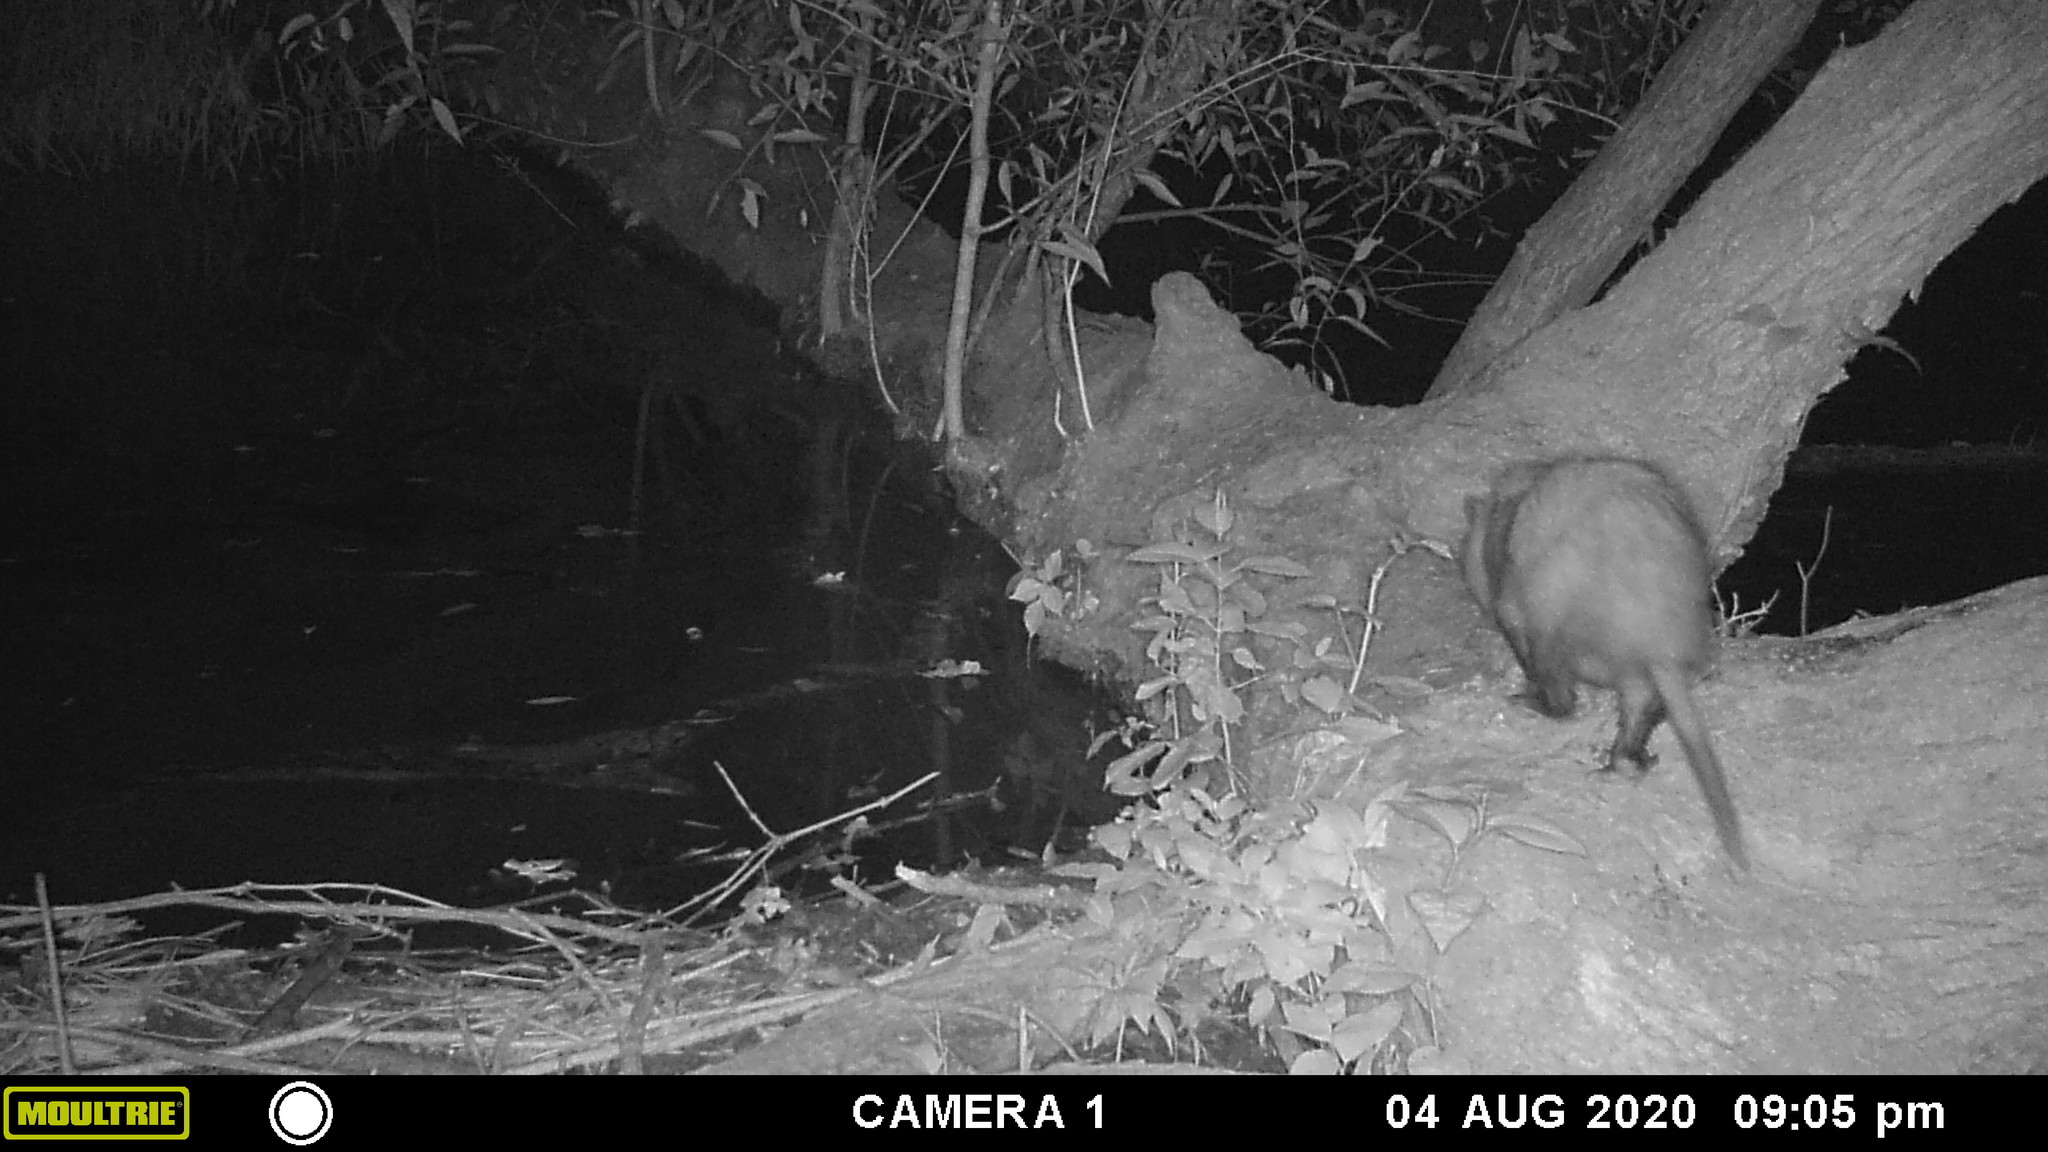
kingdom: Animalia
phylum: Chordata
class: Mammalia
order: Didelphimorphia
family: Didelphidae
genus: Didelphis
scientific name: Didelphis virginiana
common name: Virginia opossum
